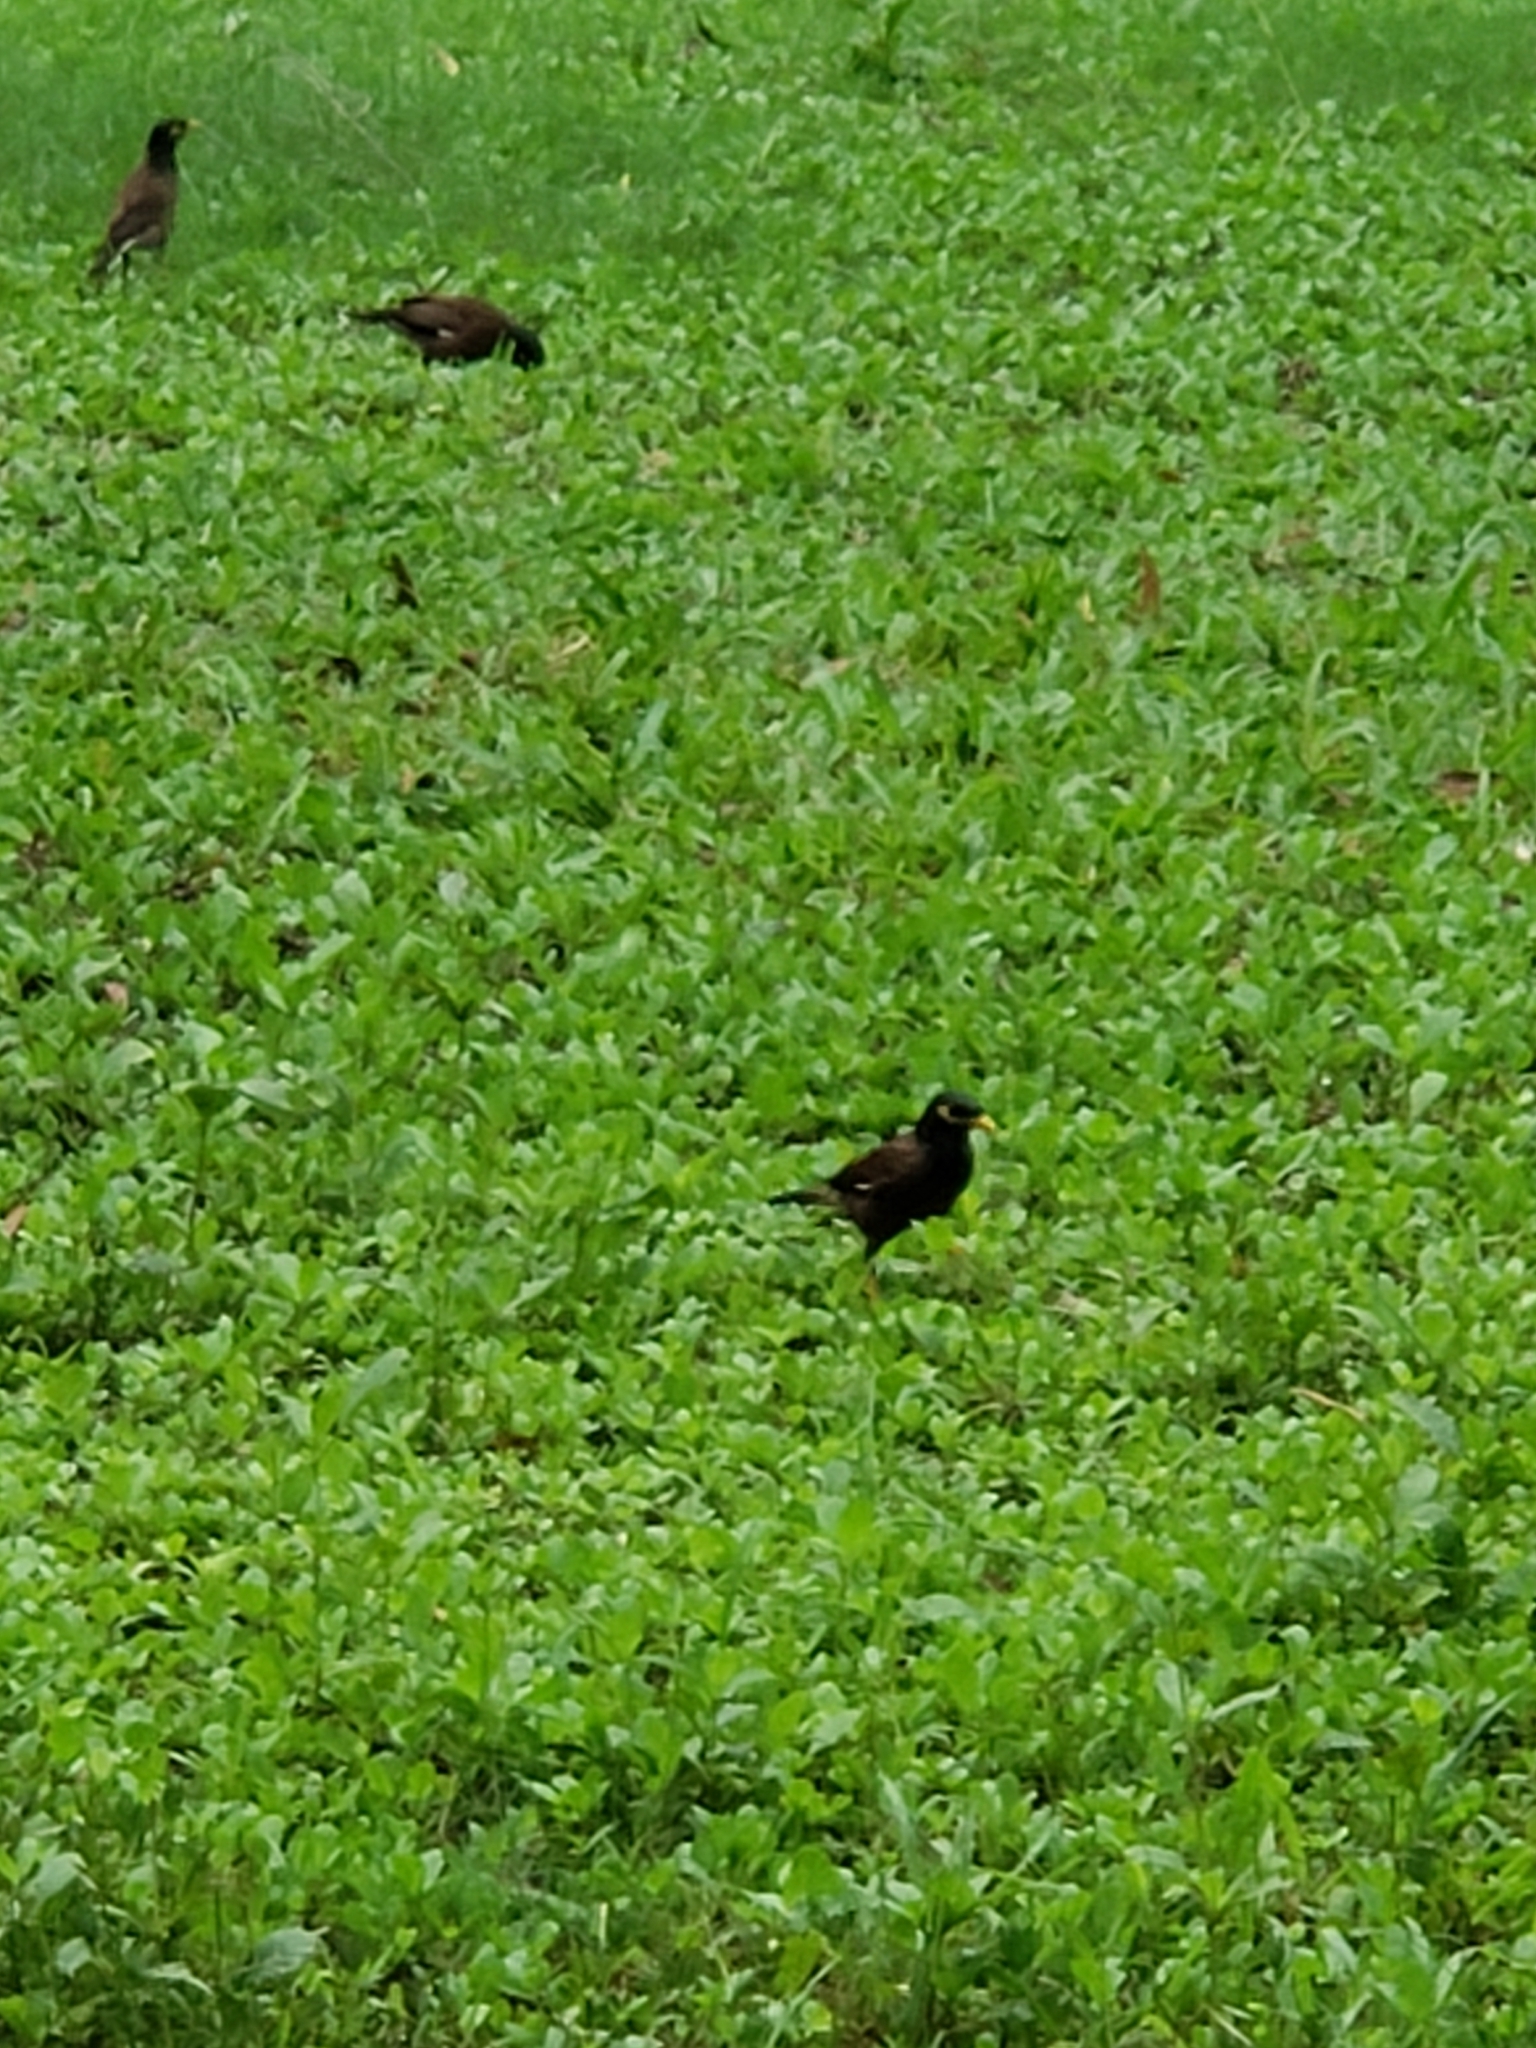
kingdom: Animalia
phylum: Chordata
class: Aves
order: Passeriformes
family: Sturnidae
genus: Acridotheres
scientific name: Acridotheres tristis
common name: Common myna
